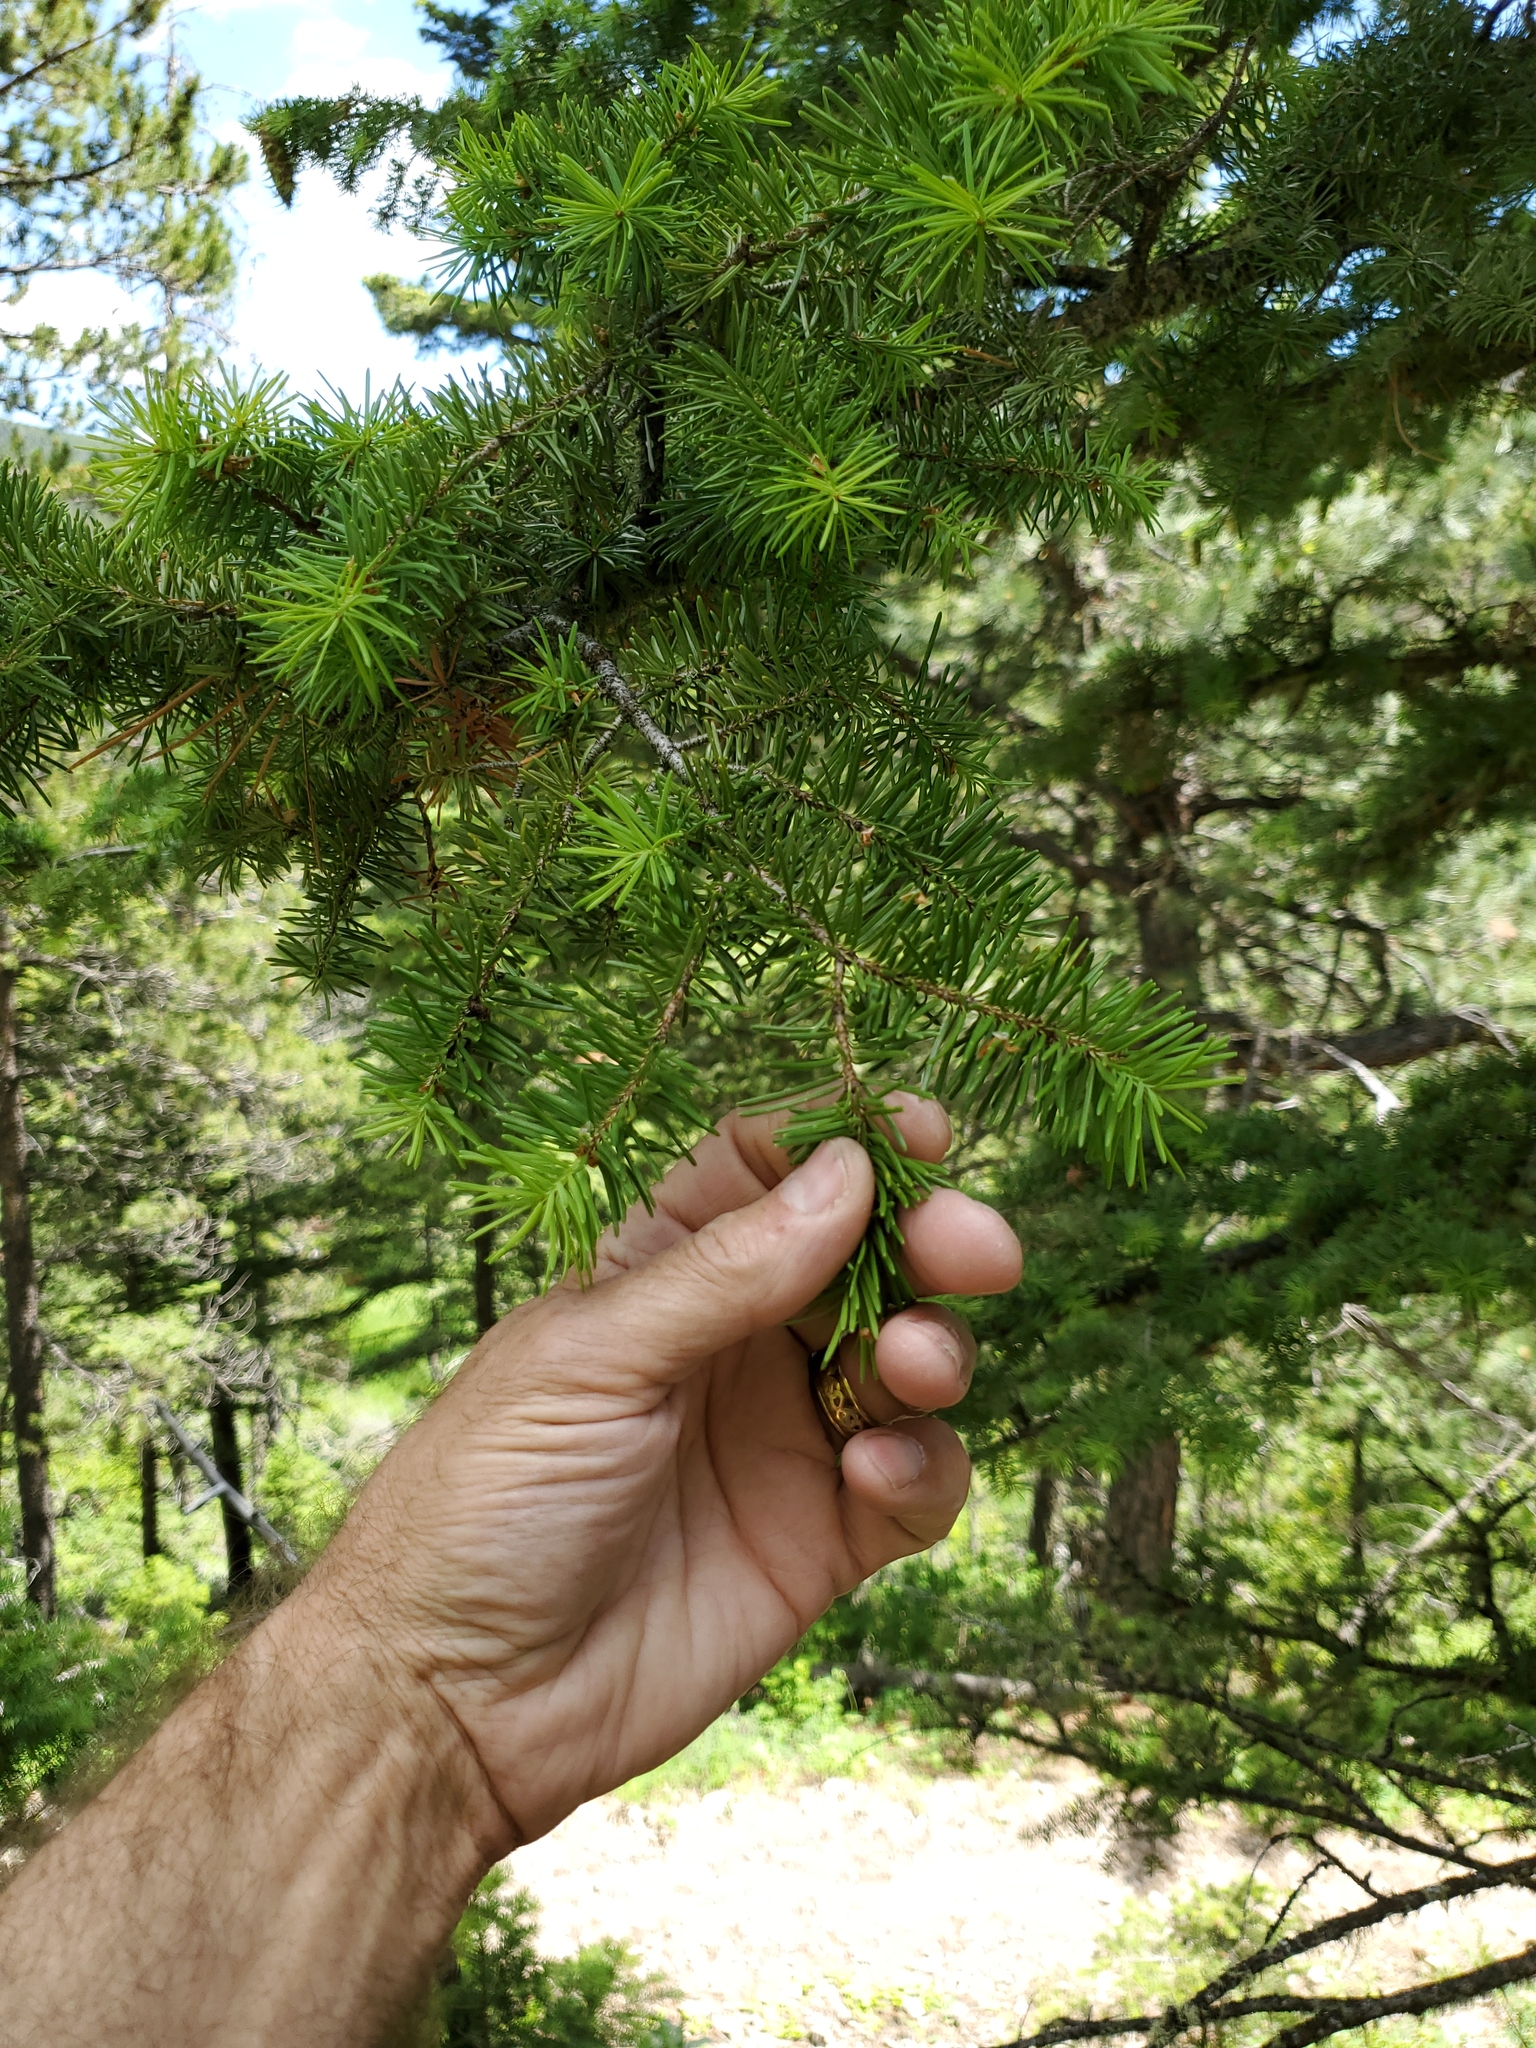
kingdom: Plantae
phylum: Tracheophyta
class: Pinopsida
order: Pinales
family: Pinaceae
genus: Pseudotsuga
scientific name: Pseudotsuga menziesii
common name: Douglas fir
